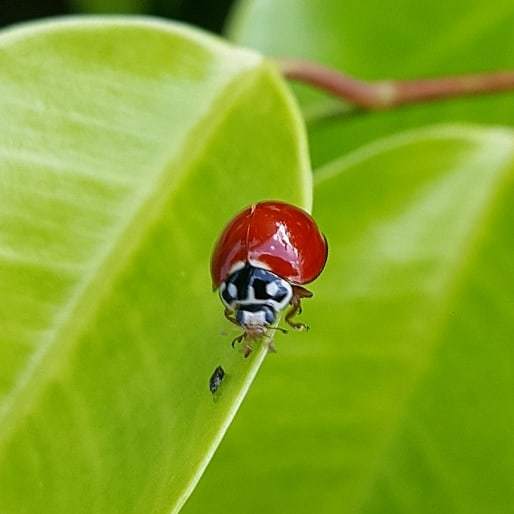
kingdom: Animalia
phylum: Arthropoda
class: Insecta
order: Coleoptera
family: Coccinellidae
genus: Cycloneda
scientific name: Cycloneda sanguinea
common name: Ladybird beetle
